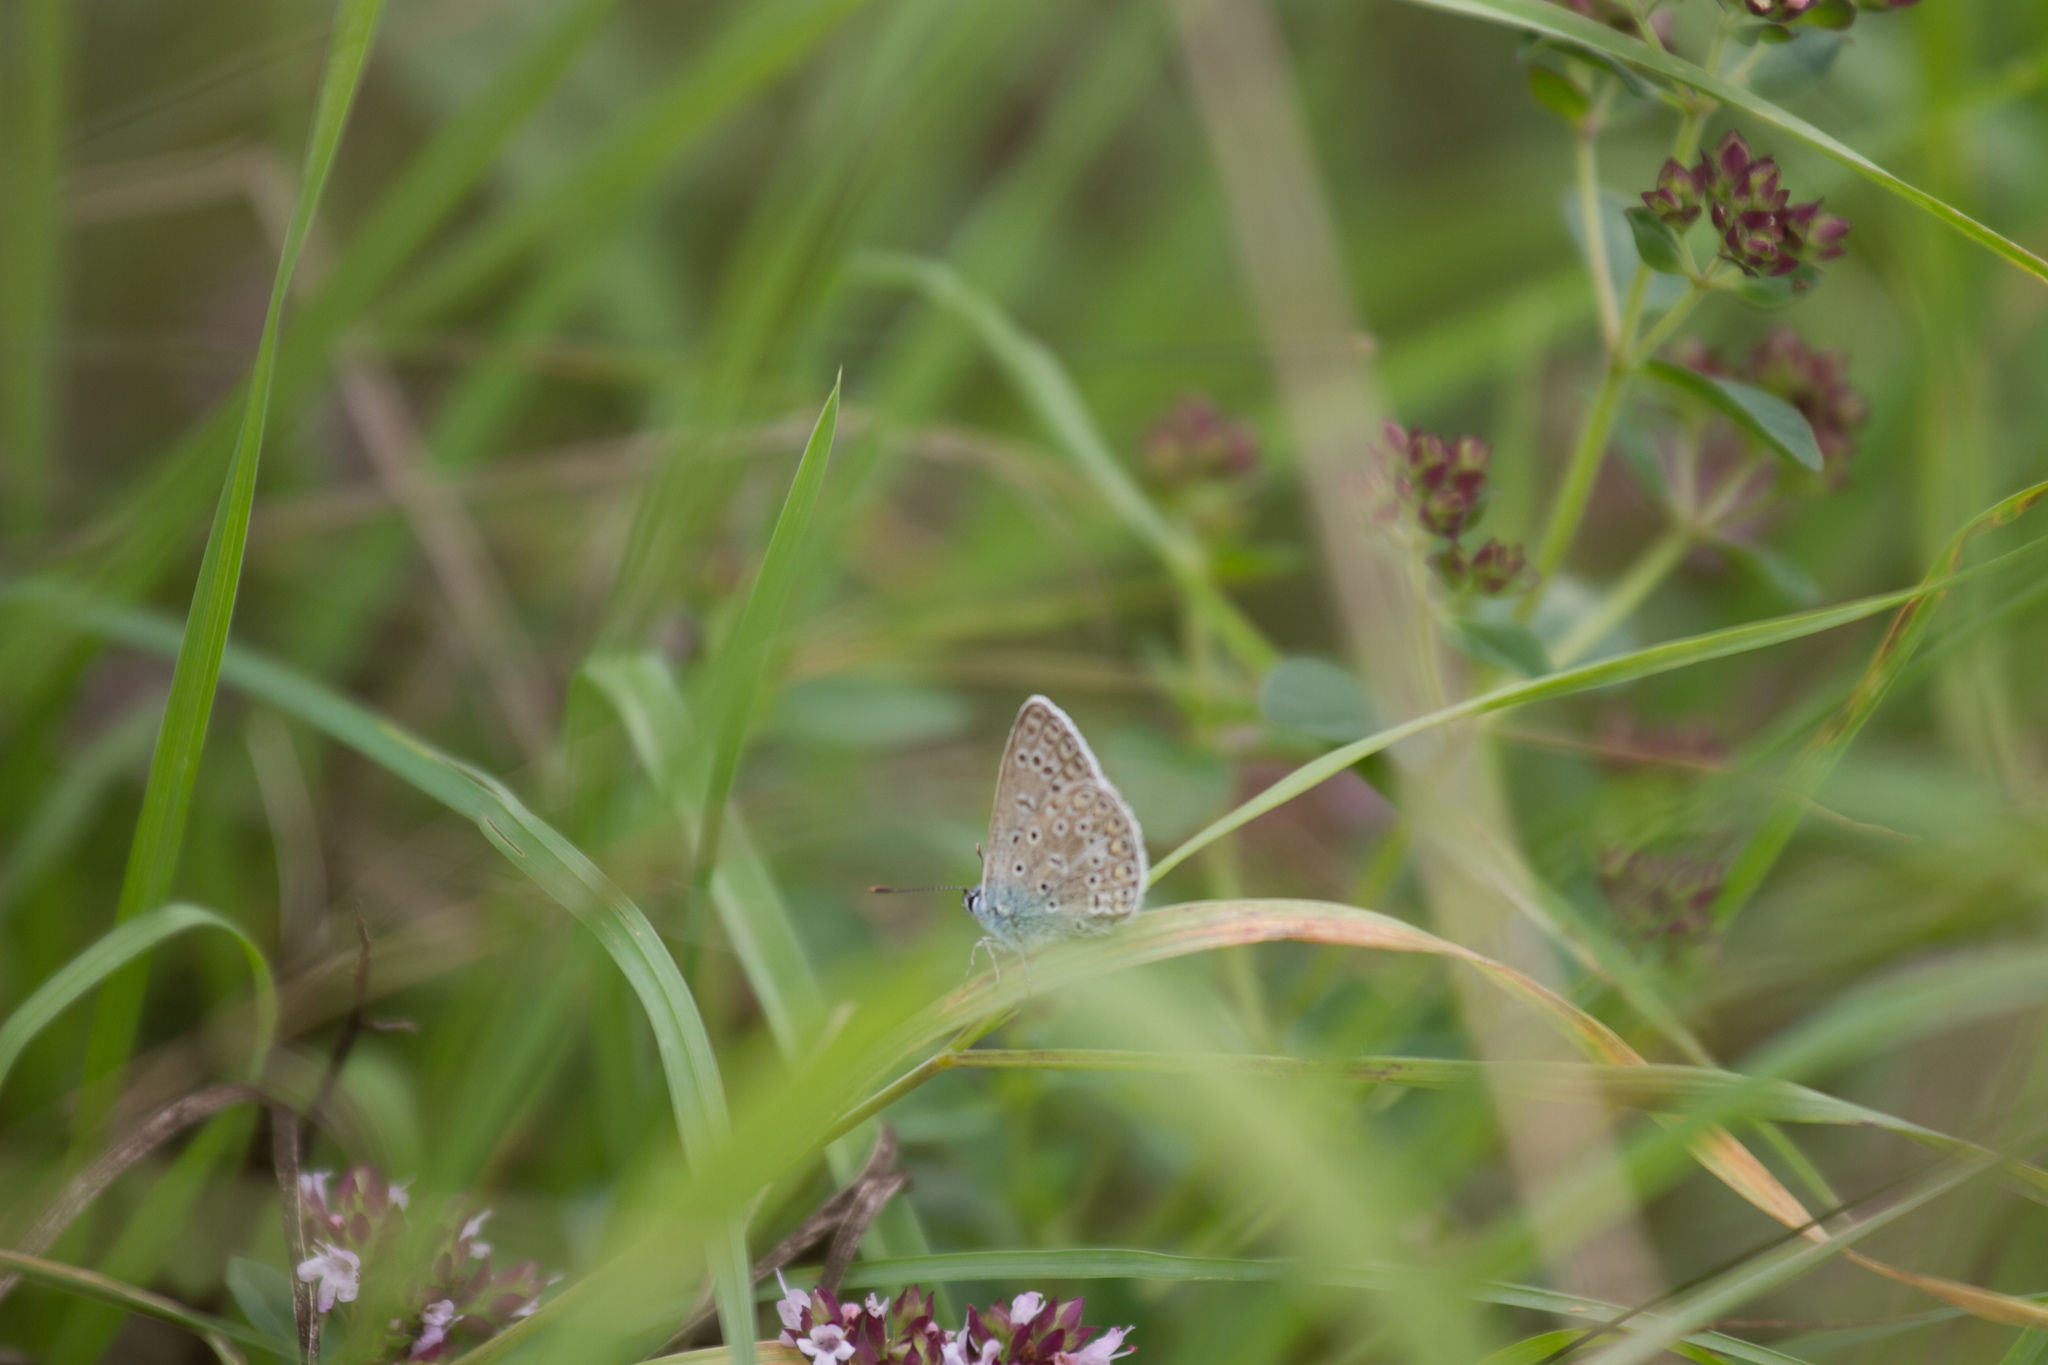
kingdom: Animalia
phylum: Arthropoda
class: Insecta
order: Lepidoptera
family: Lycaenidae
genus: Polyommatus
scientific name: Polyommatus icarus
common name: Common blue
